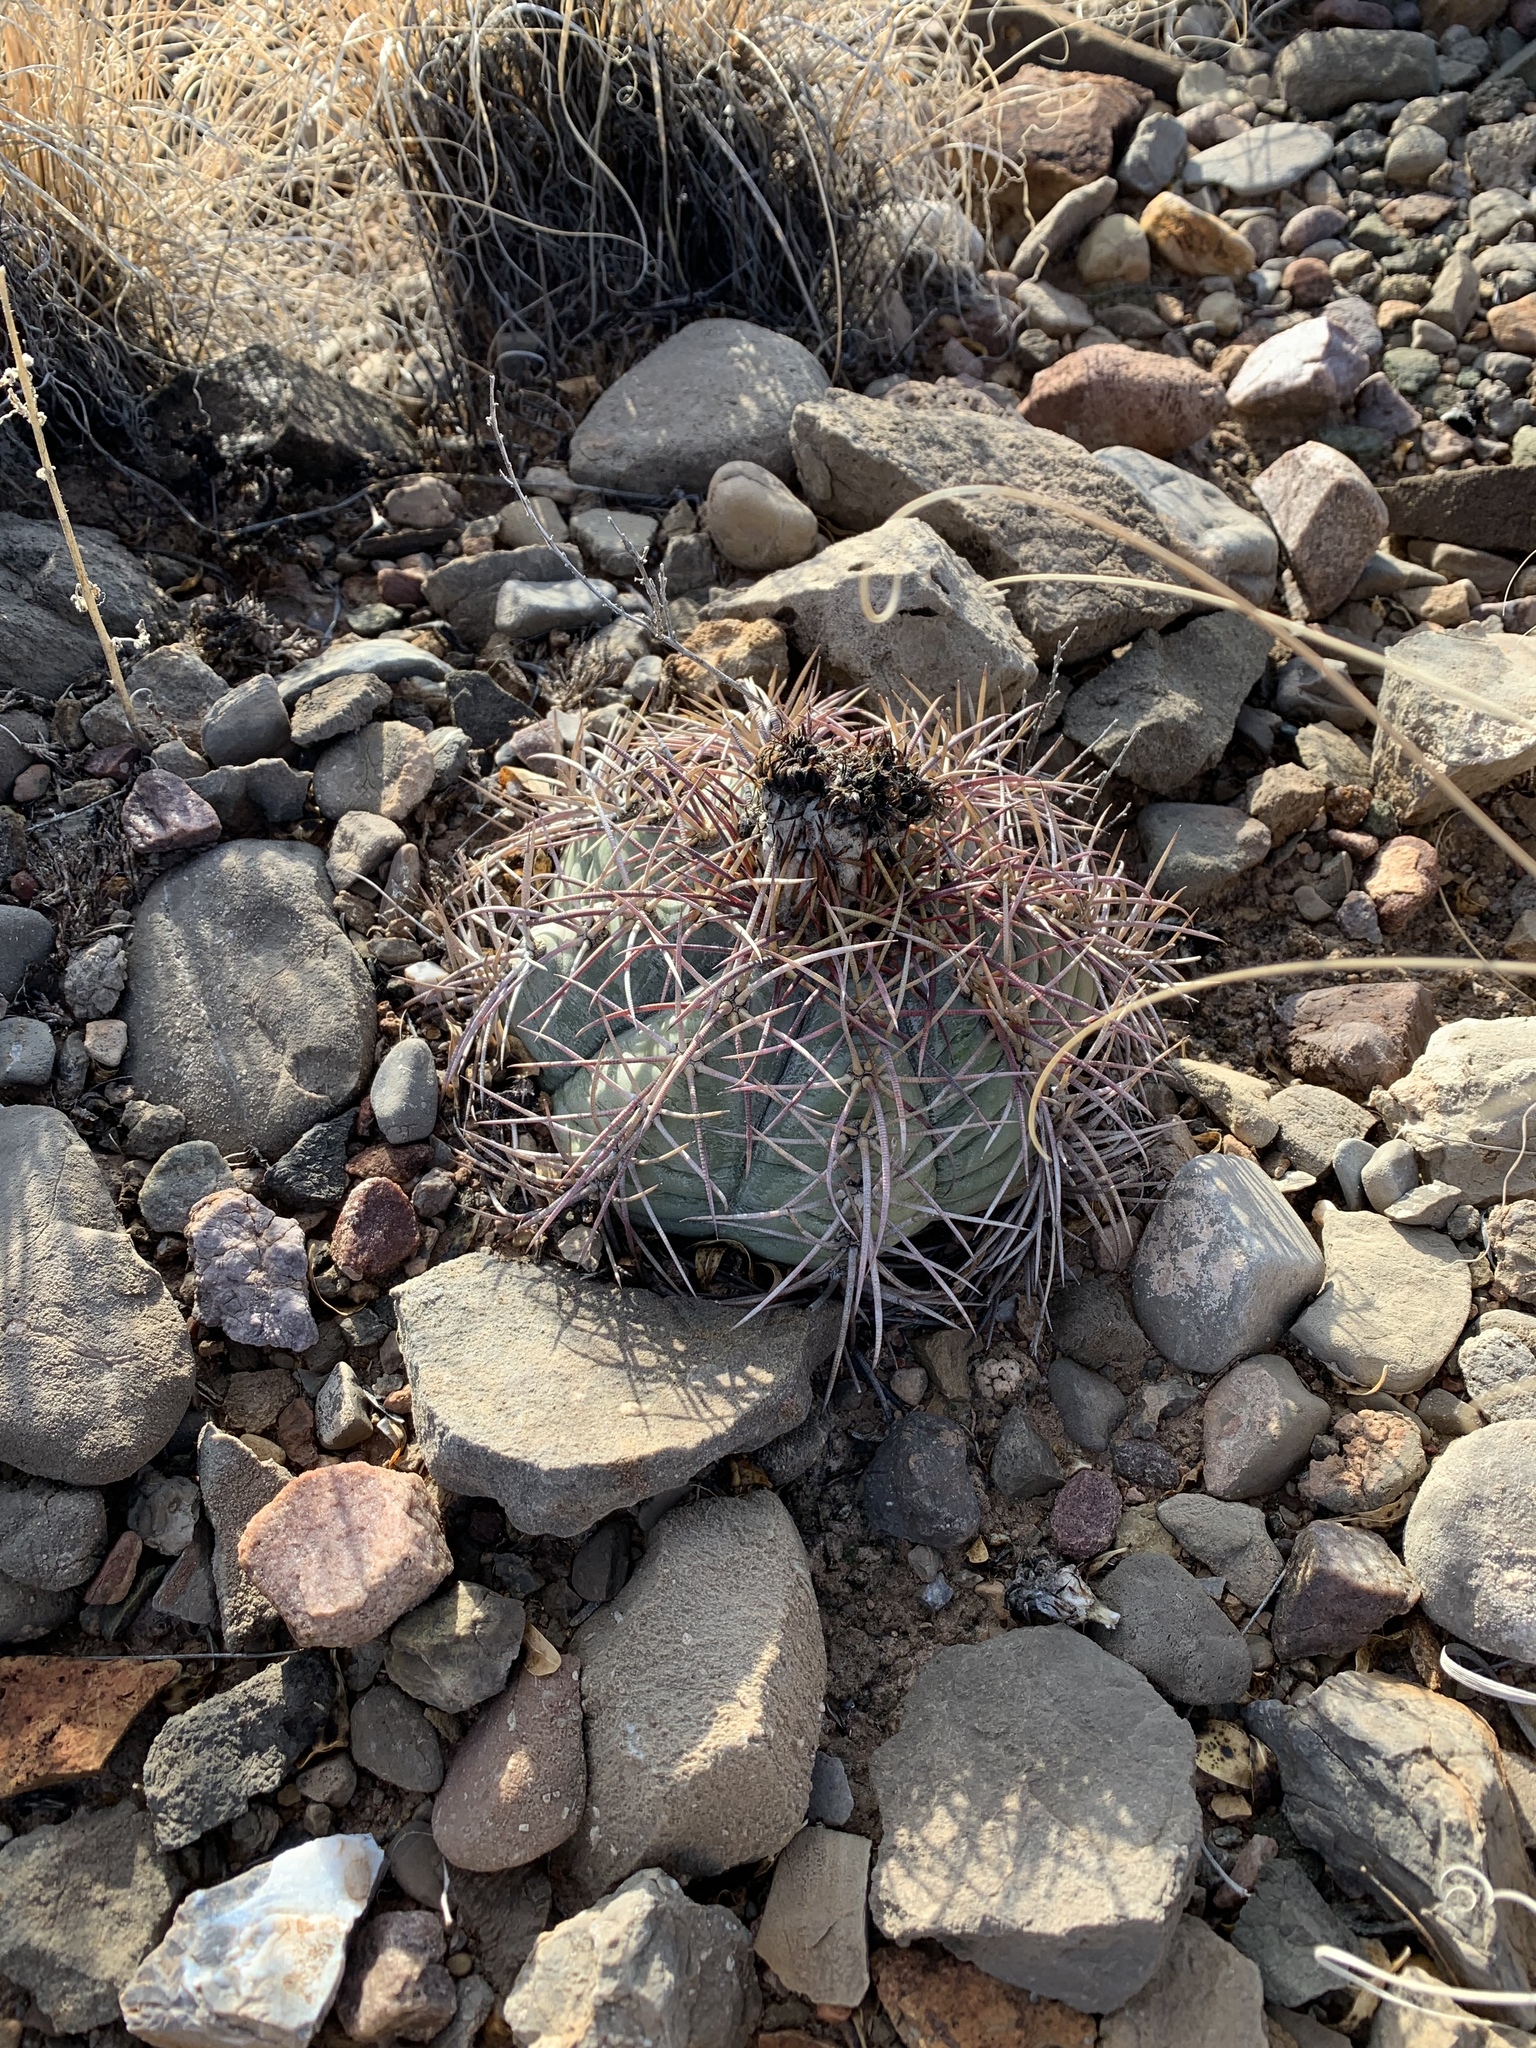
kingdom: Plantae
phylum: Tracheophyta
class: Magnoliopsida
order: Caryophyllales
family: Cactaceae
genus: Echinocactus
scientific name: Echinocactus horizonthalonius
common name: Devilshead
